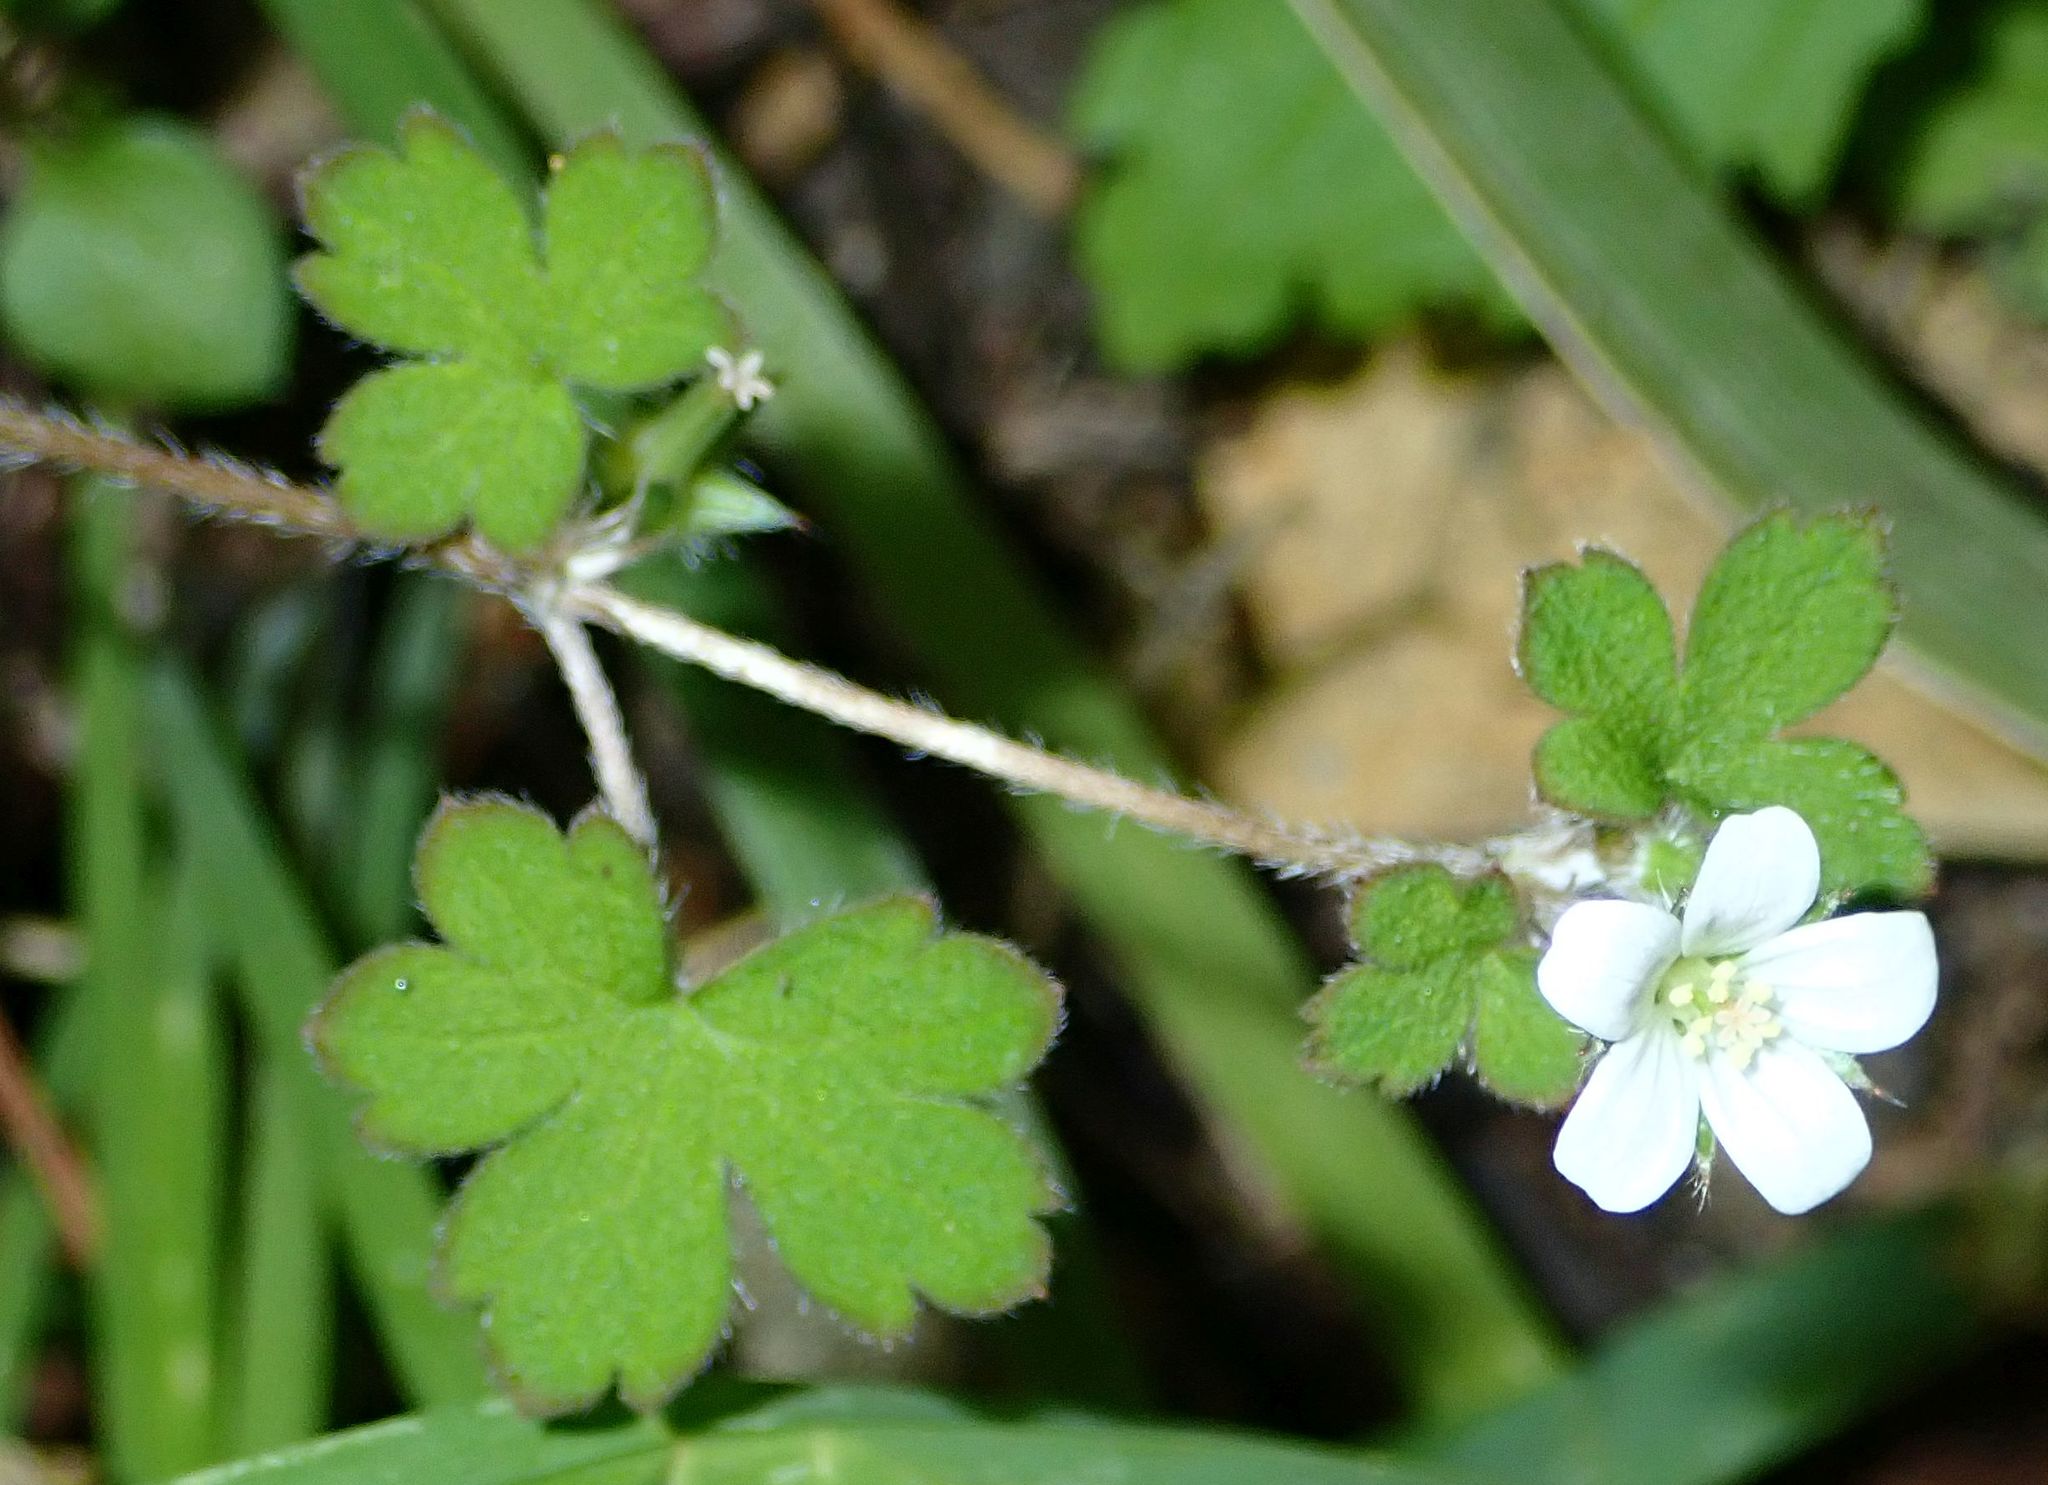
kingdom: Plantae
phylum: Tracheophyta
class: Magnoliopsida
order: Geraniales
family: Geraniaceae
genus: Geranium
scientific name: Geranium
